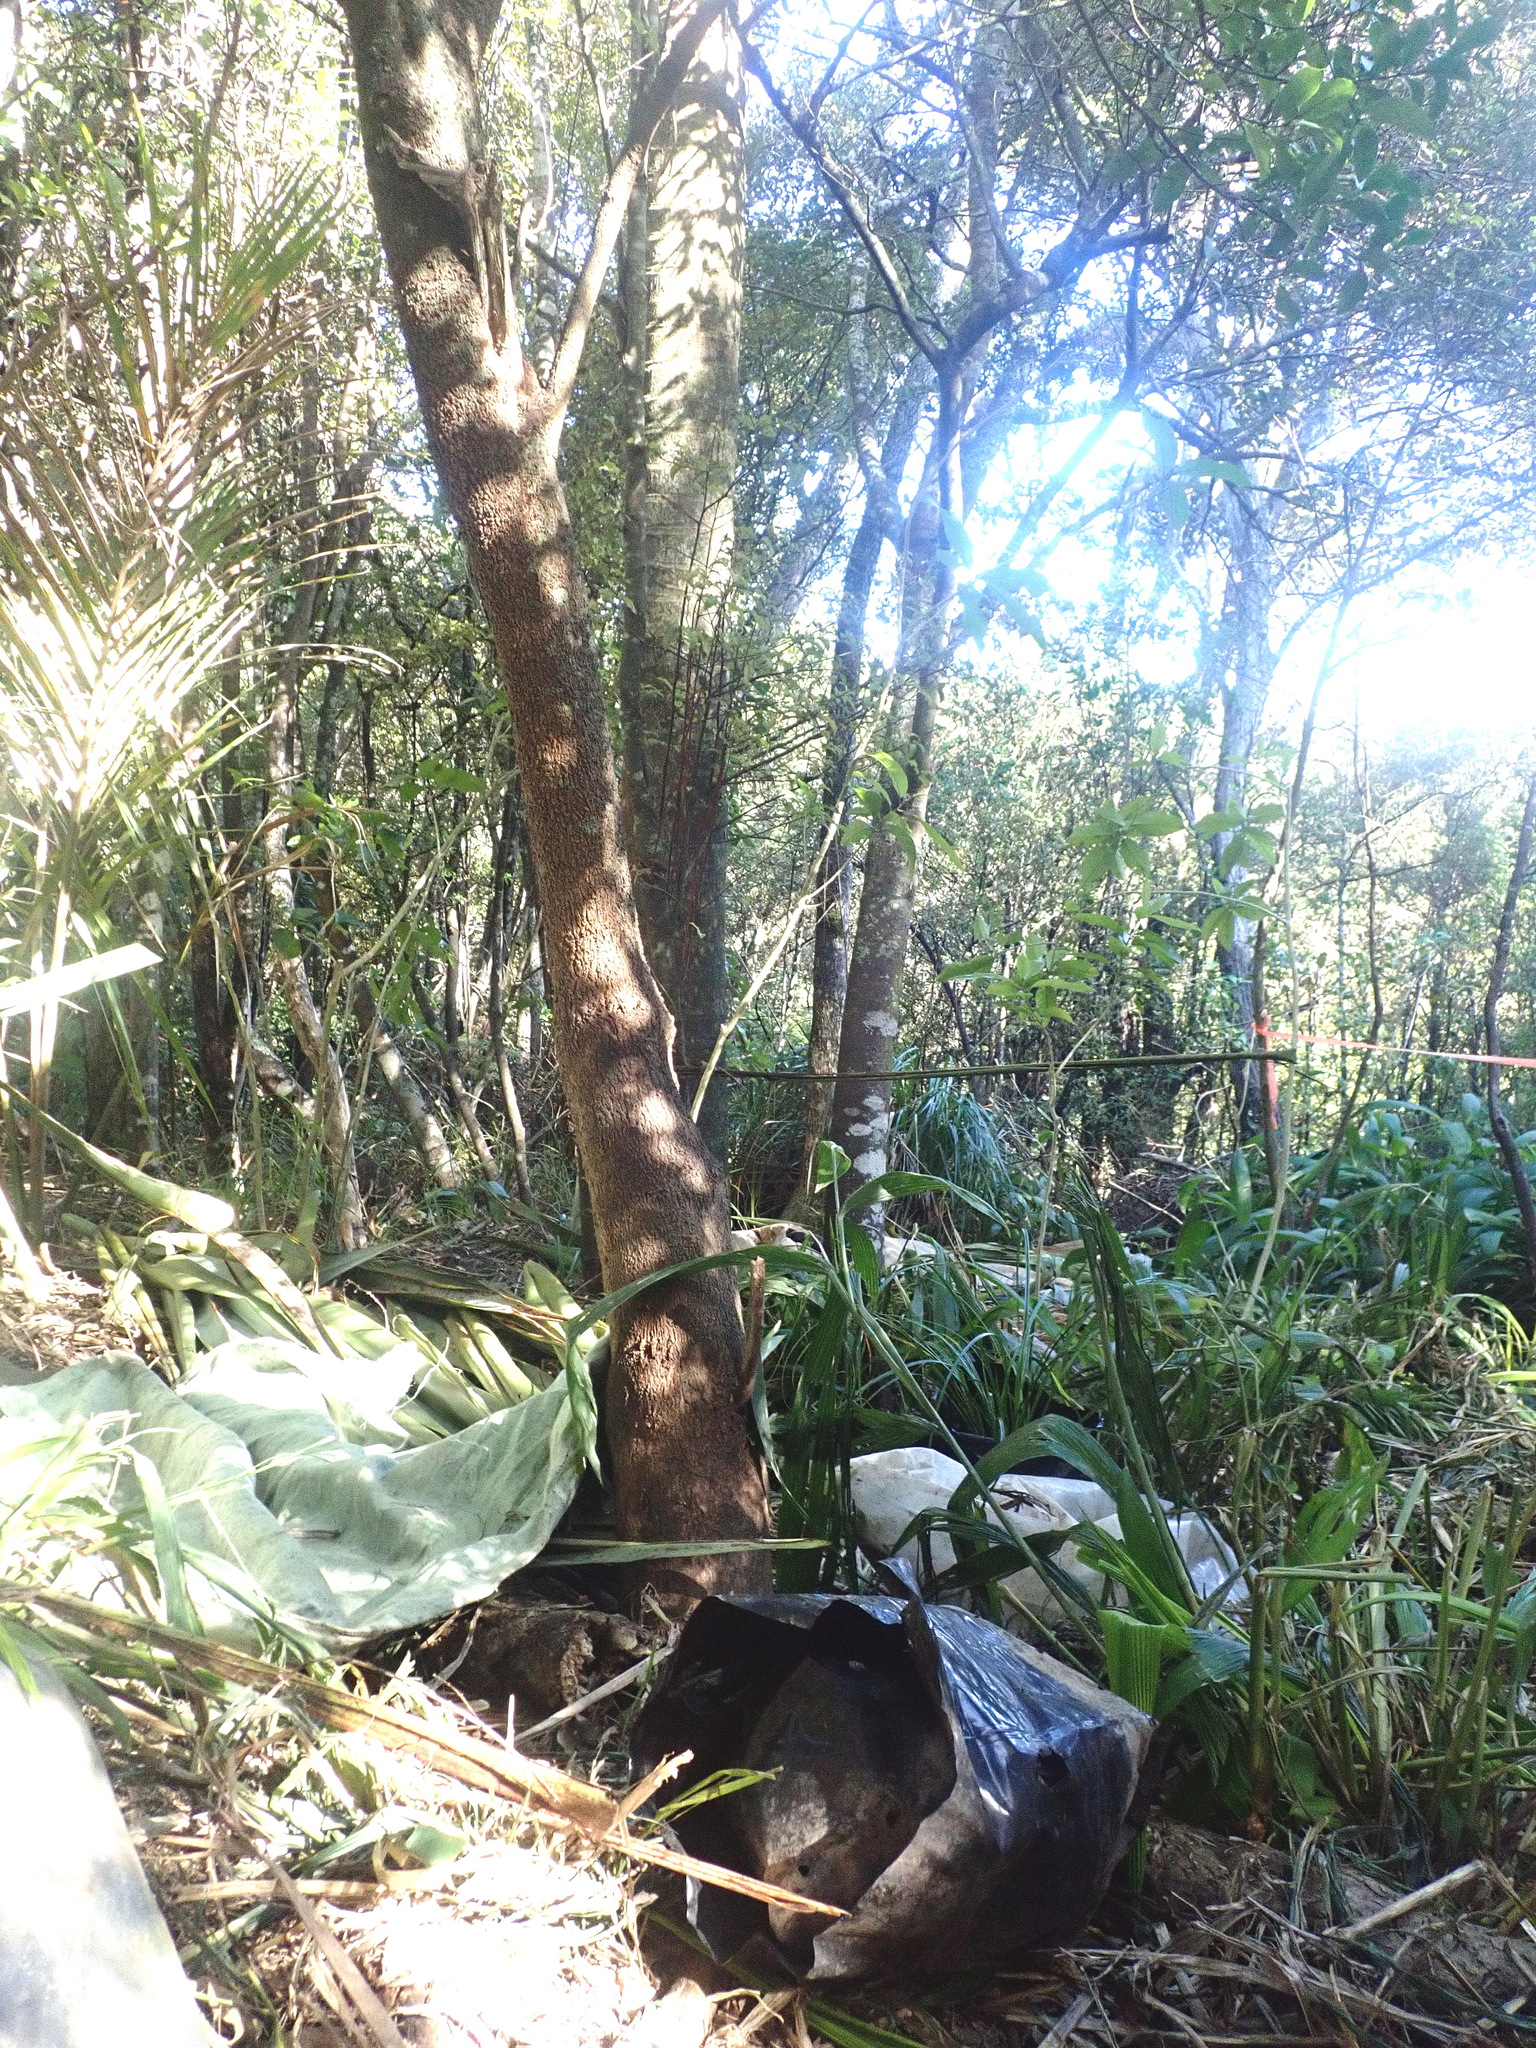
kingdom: Plantae
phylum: Tracheophyta
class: Liliopsida
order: Arecales
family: Arecaceae
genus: Rhopalostylis
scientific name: Rhopalostylis sapida
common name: Feather-duster palm
